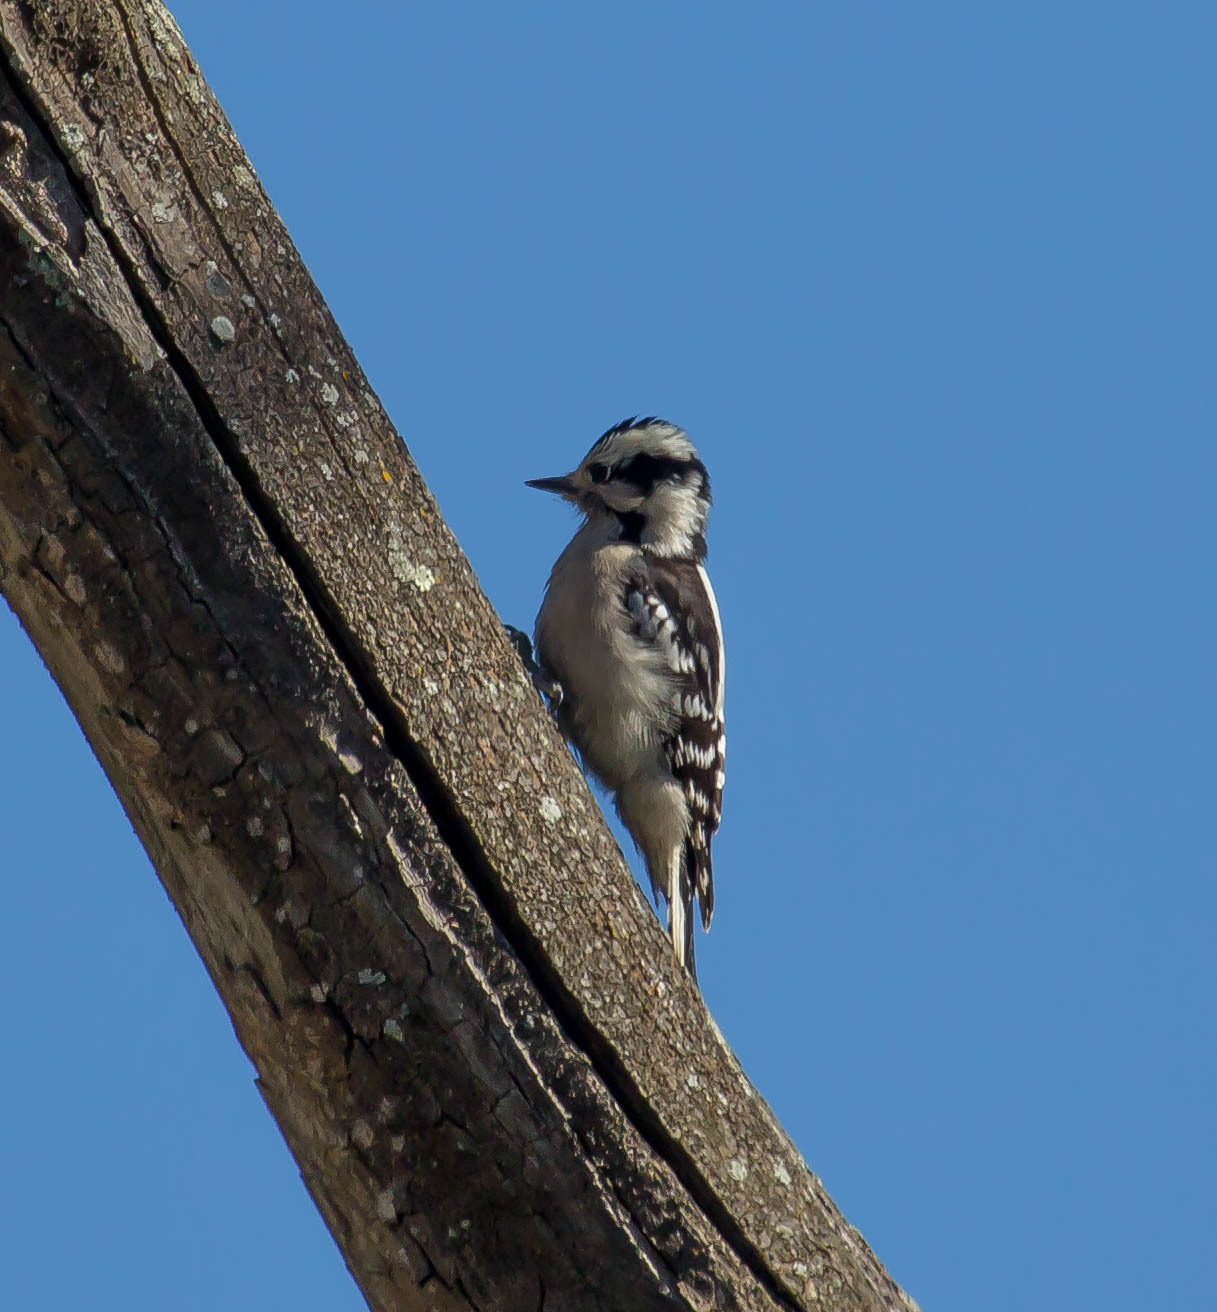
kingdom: Animalia
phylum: Chordata
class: Aves
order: Piciformes
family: Picidae
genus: Dryobates
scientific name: Dryobates pubescens
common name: Downy woodpecker
